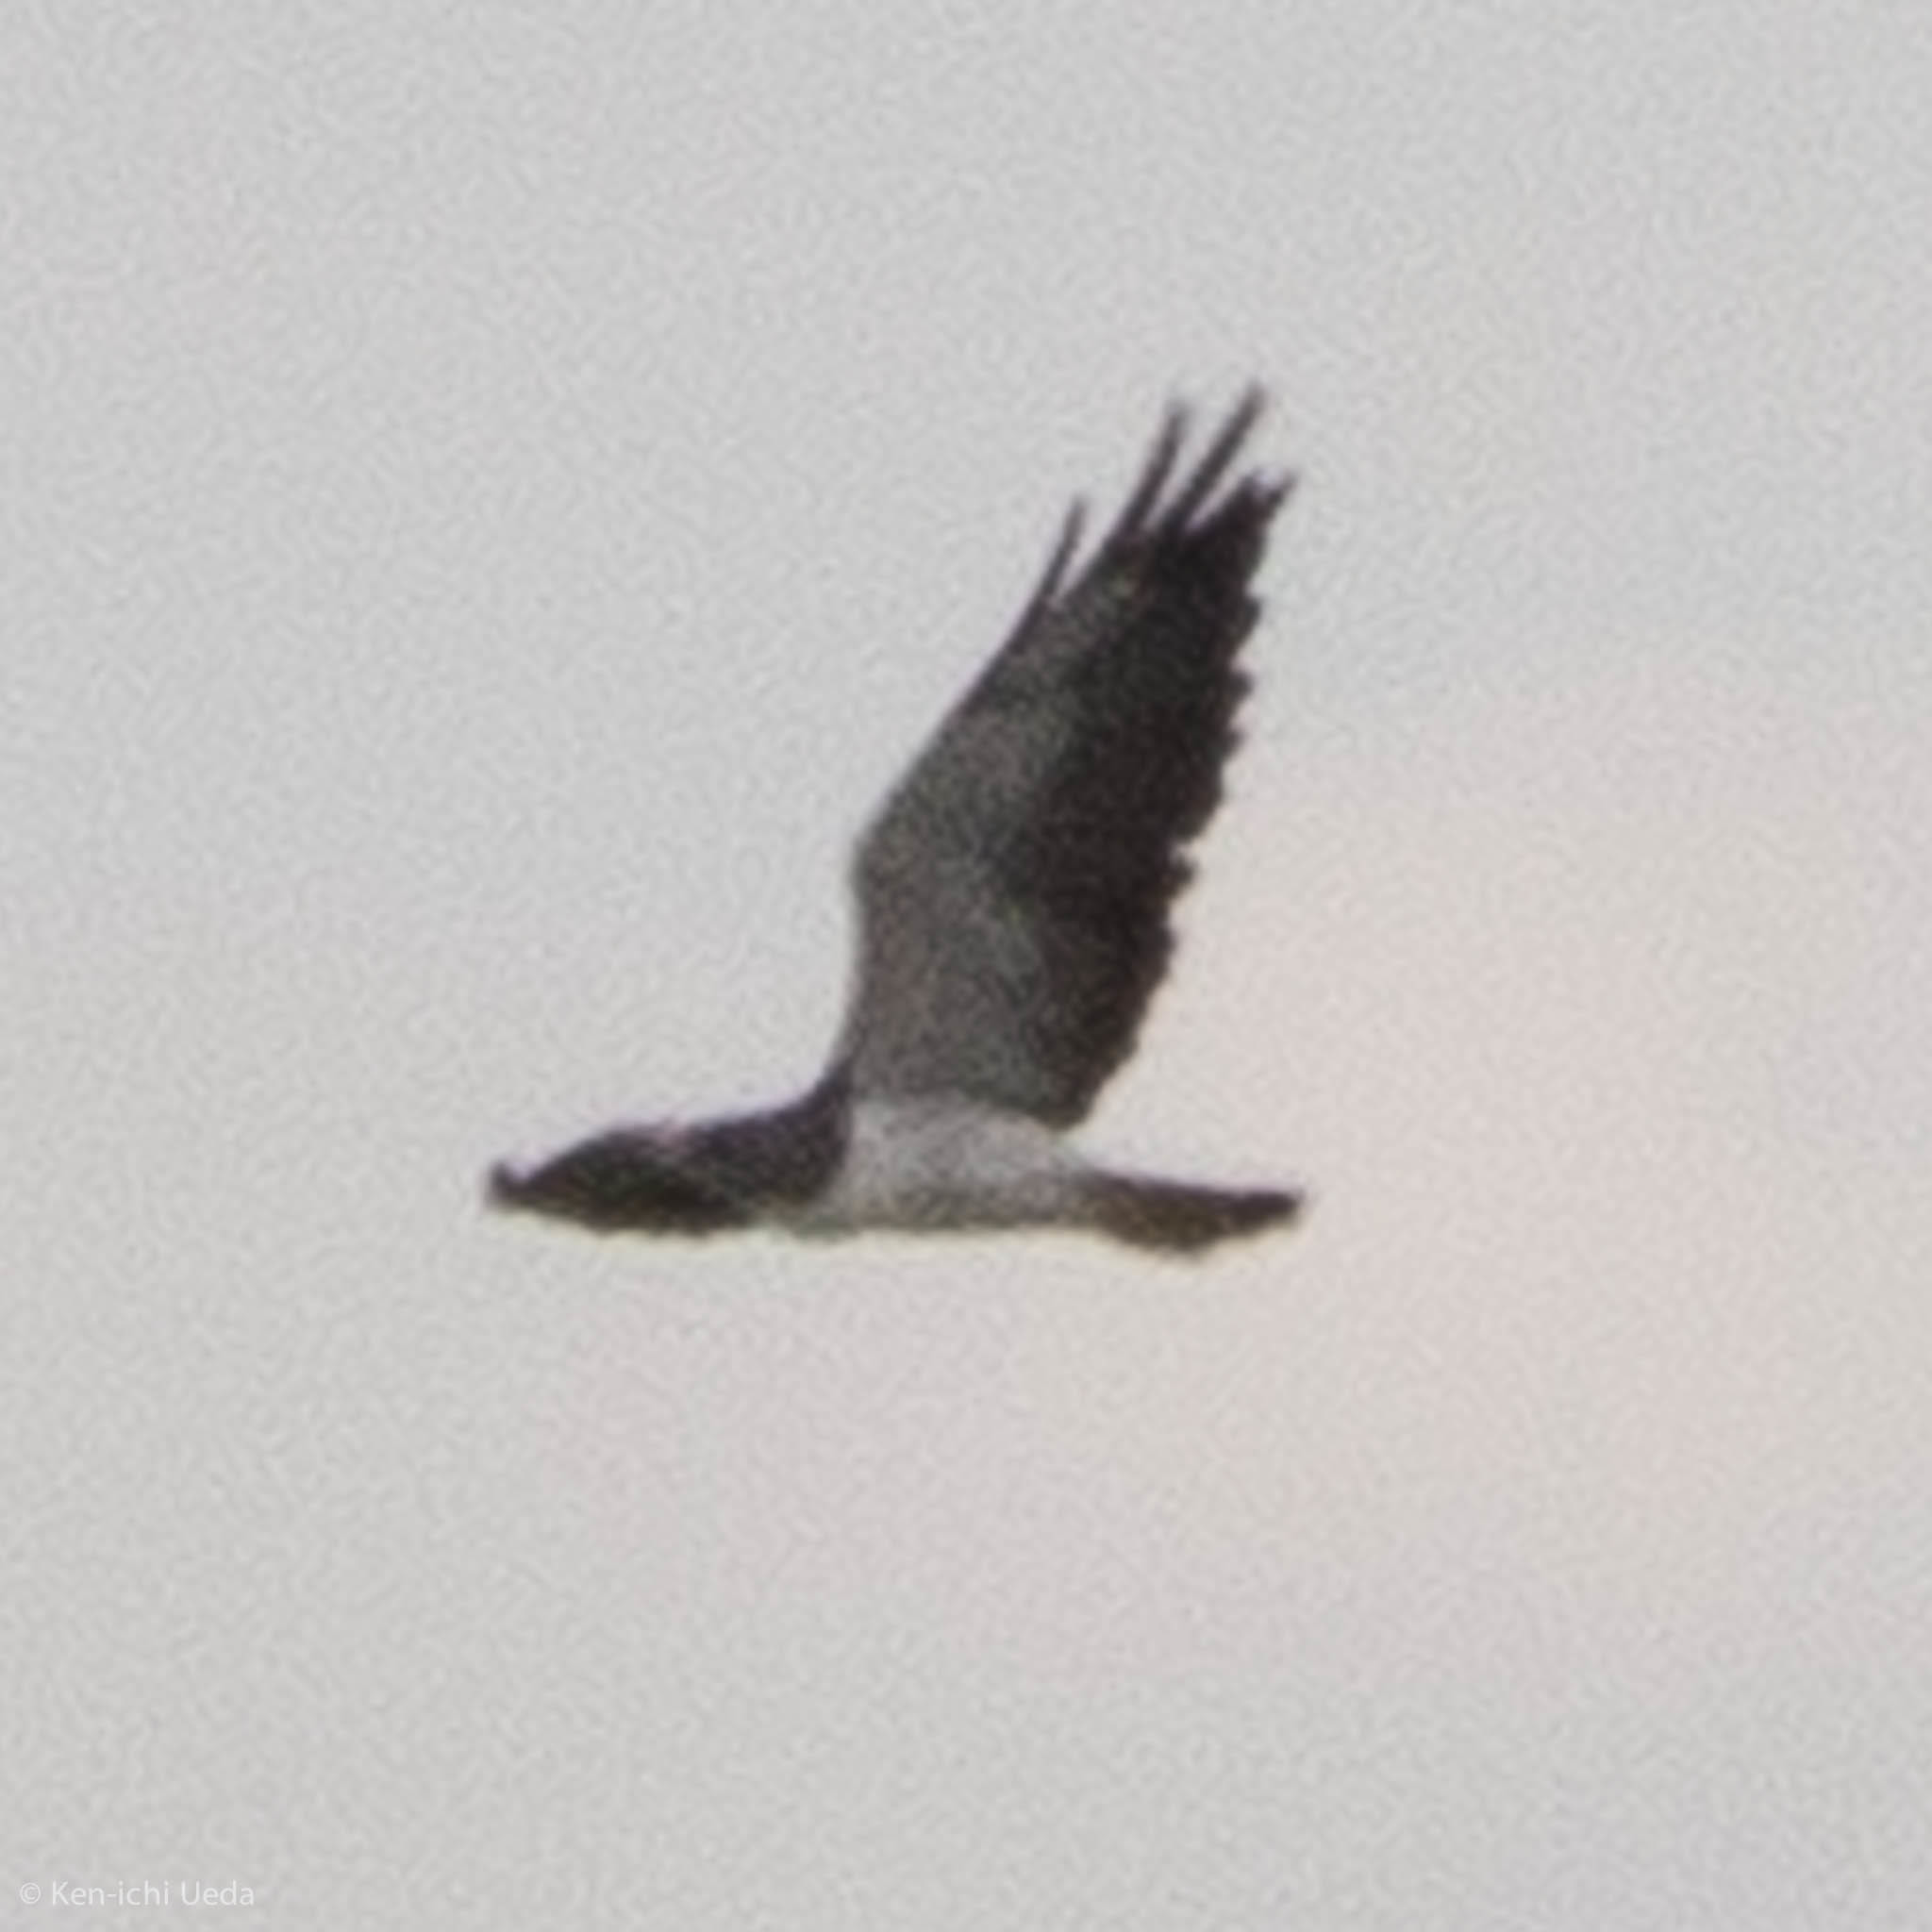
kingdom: Animalia
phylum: Chordata
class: Aves
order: Accipitriformes
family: Accipitridae
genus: Buteo
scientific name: Buteo albicaudatus
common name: White-tailed hawk
